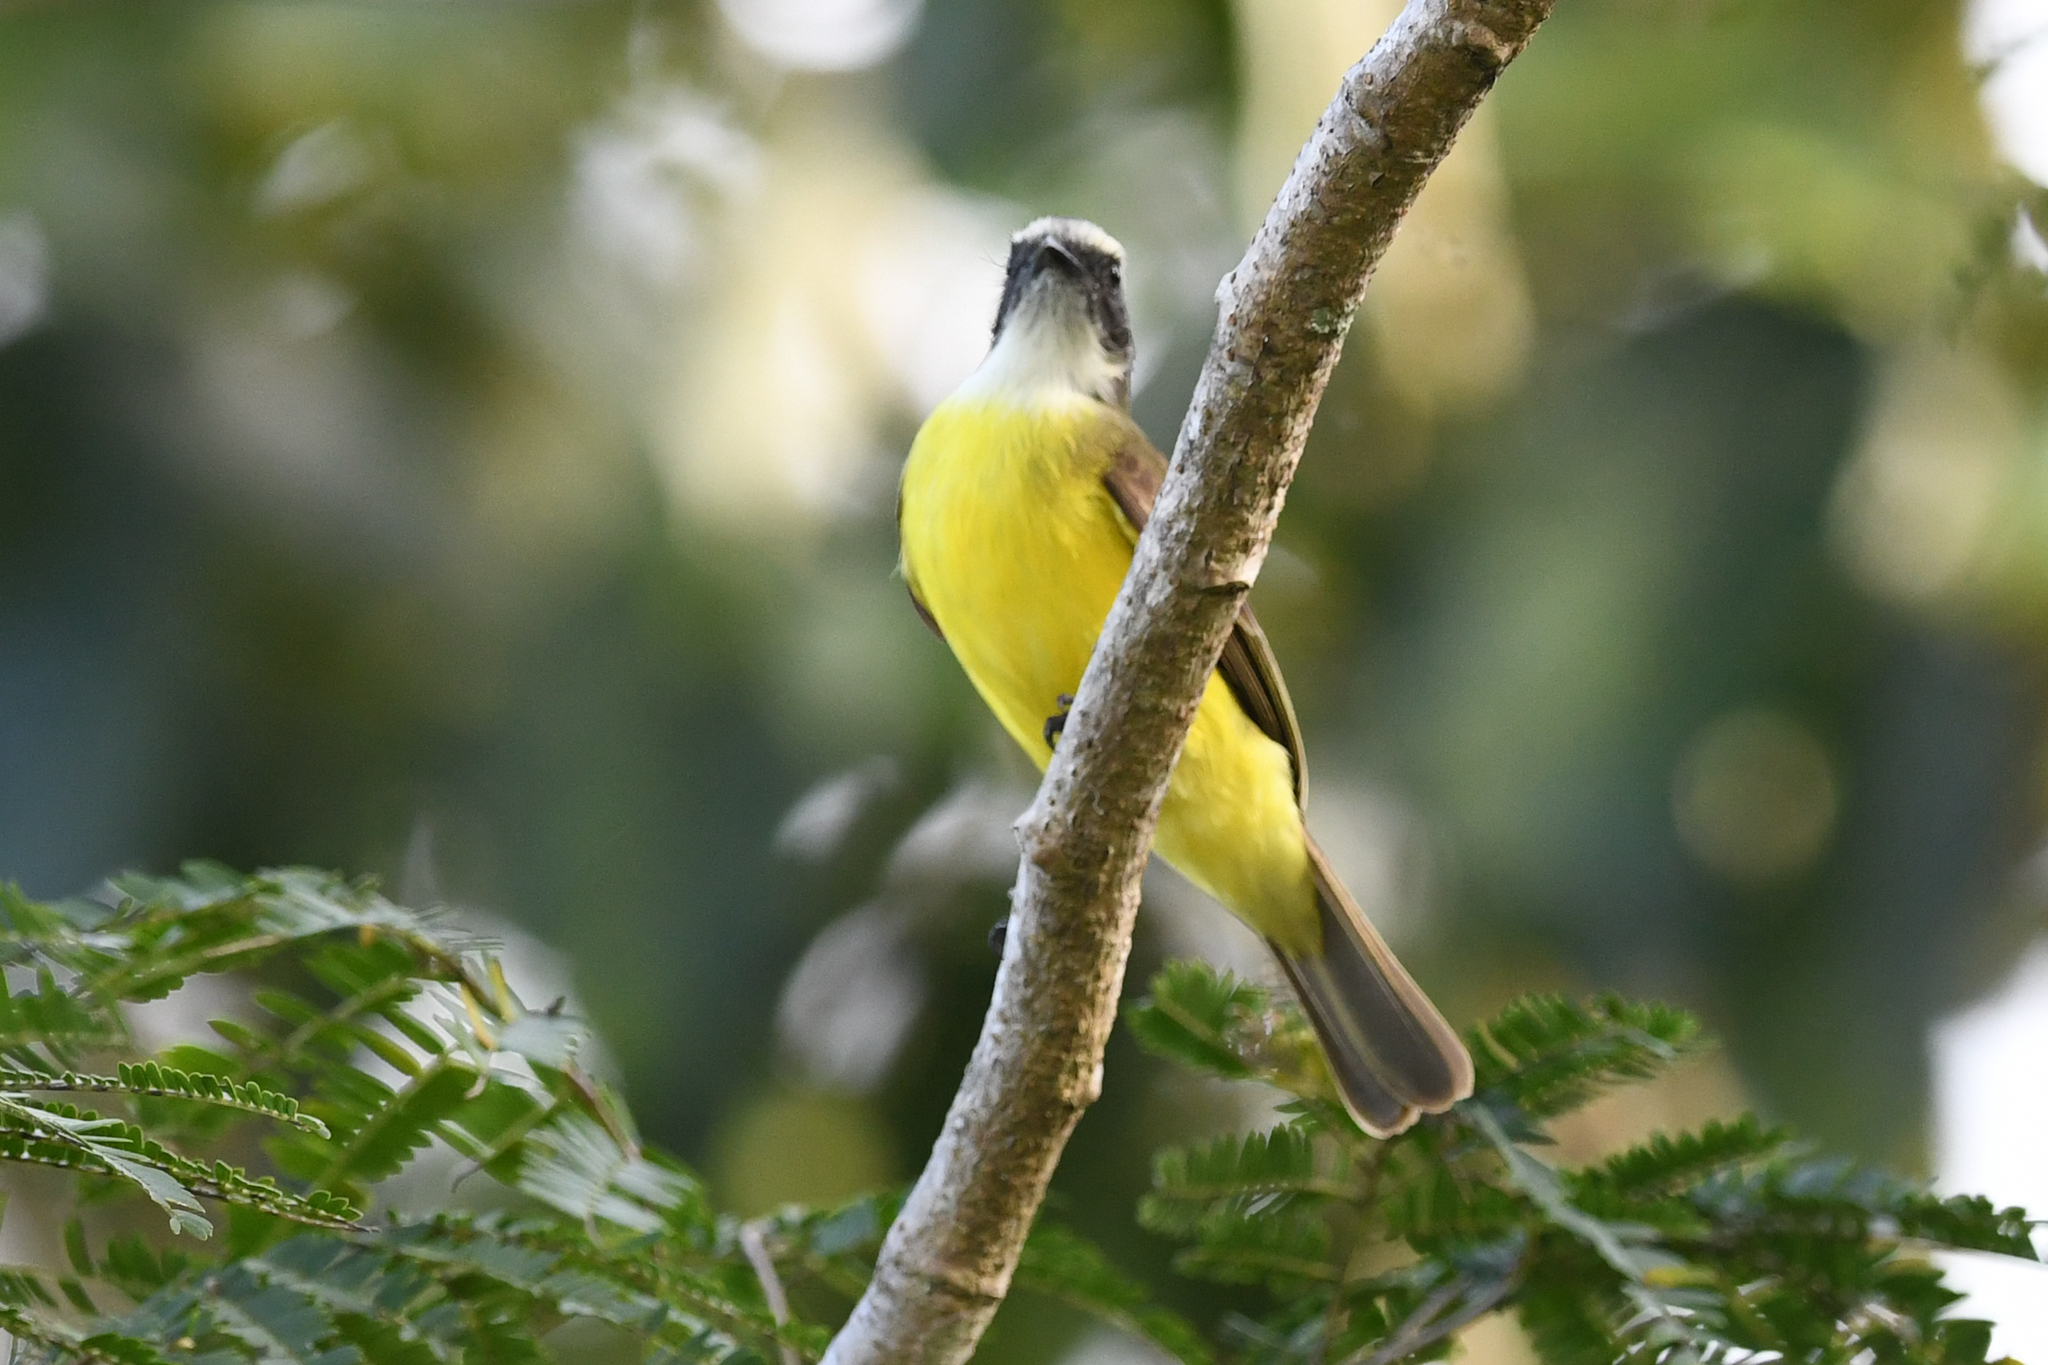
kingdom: Animalia
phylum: Chordata
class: Aves
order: Passeriformes
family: Tyrannidae
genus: Myiozetetes
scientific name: Myiozetetes similis
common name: Social flycatcher
